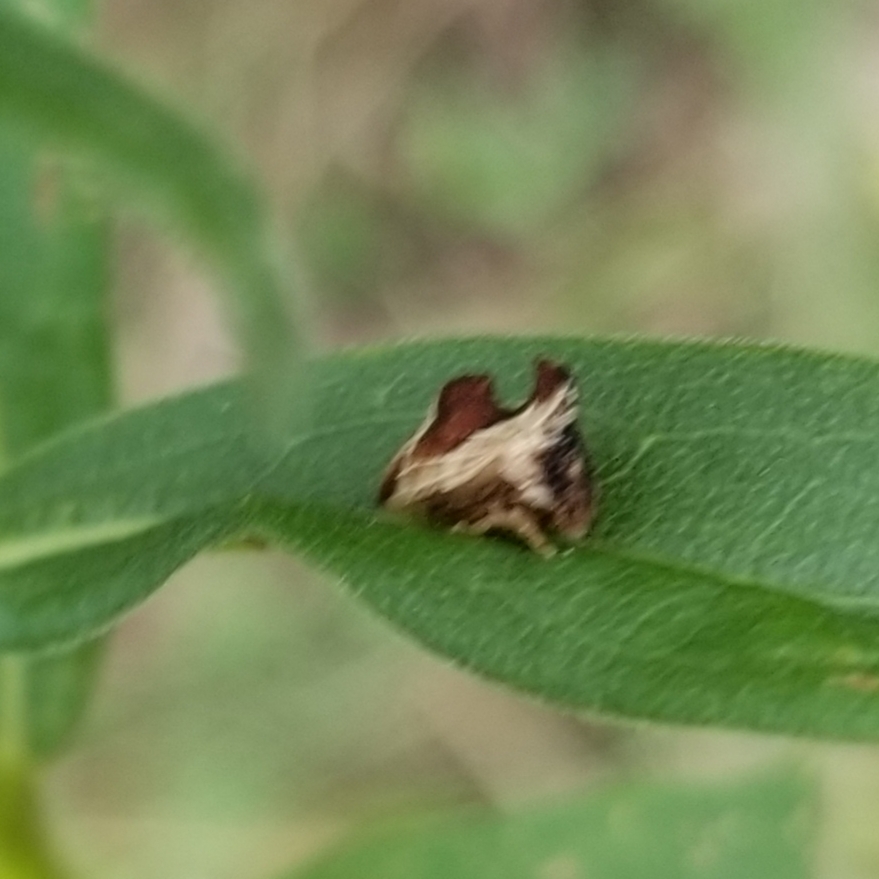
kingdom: Animalia
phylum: Arthropoda
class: Insecta
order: Hemiptera
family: Membracidae
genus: Entylia
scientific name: Entylia carinata
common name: Keeled treehopper
